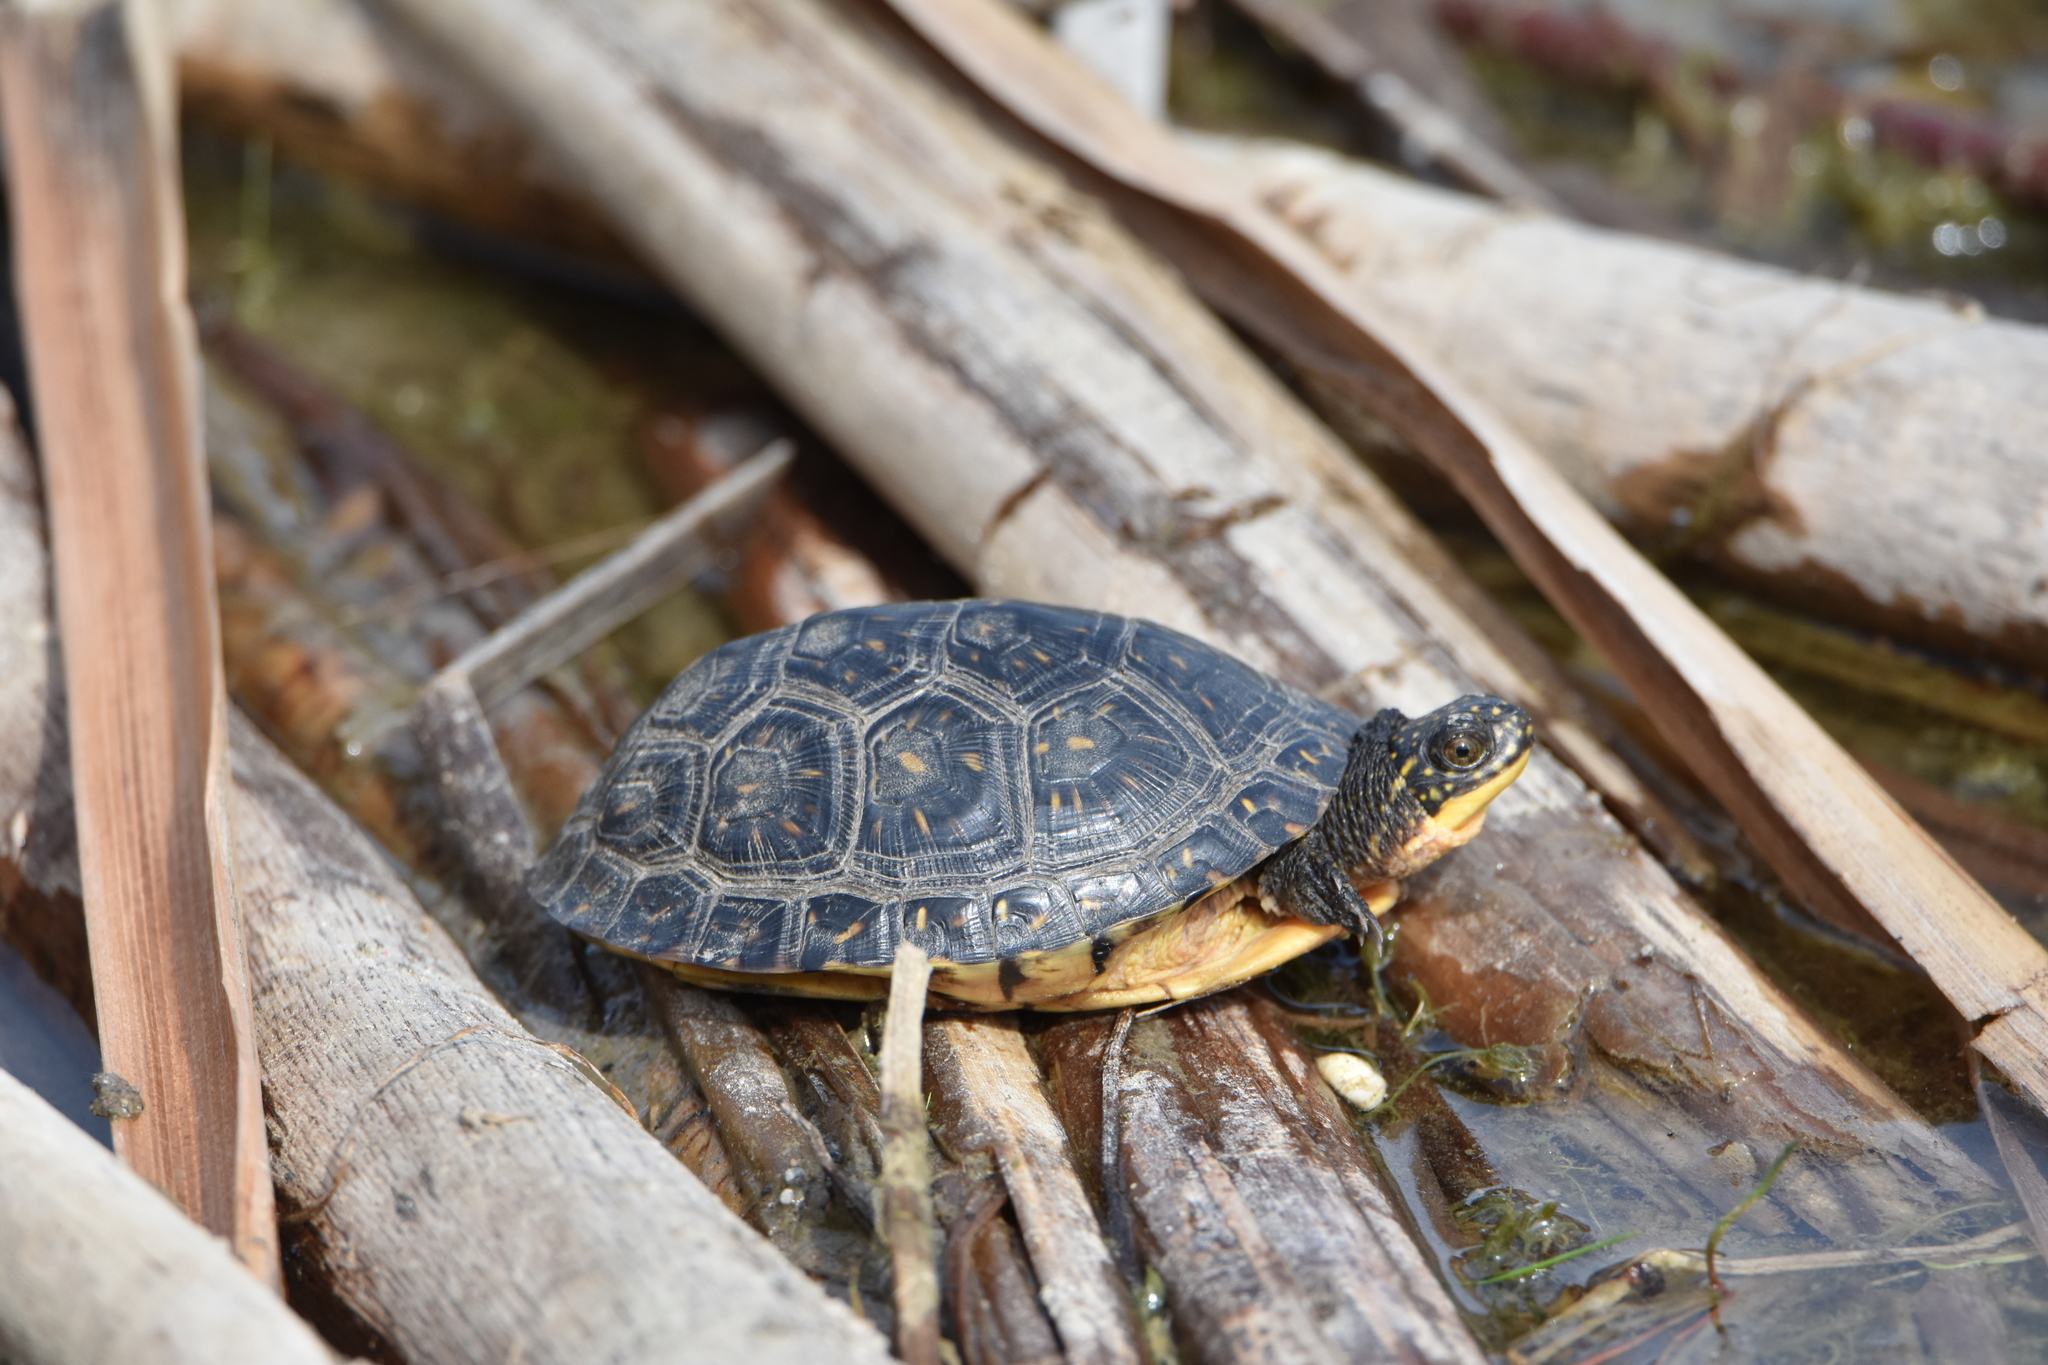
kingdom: Animalia
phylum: Chordata
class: Testudines
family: Emydidae
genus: Emys
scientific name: Emys blandingii
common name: Blanding's turtle
